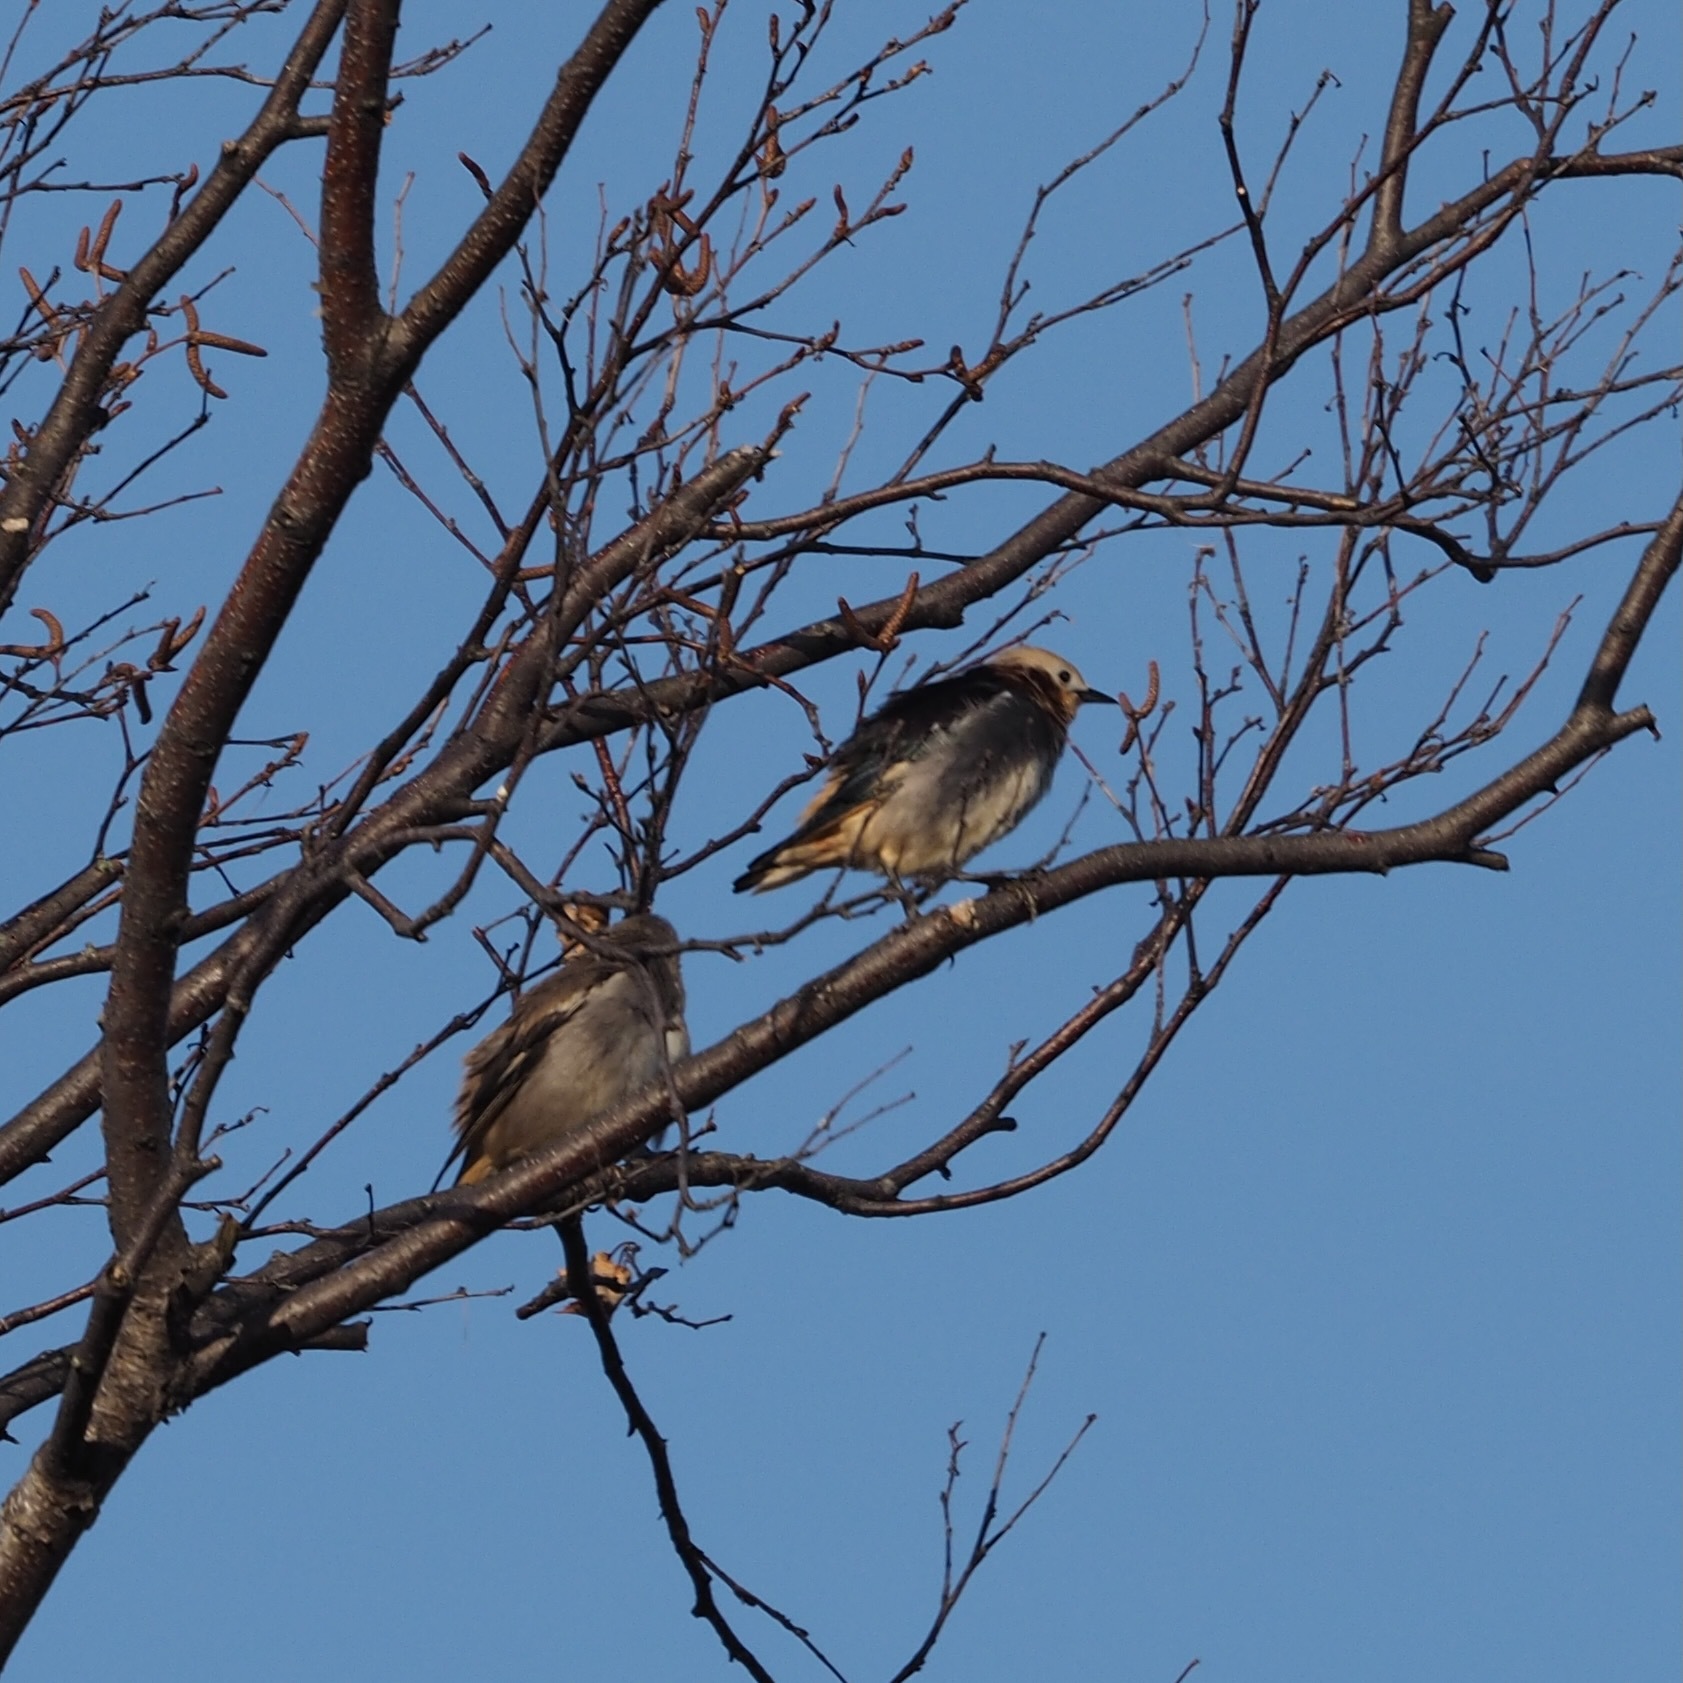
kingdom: Animalia
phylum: Chordata
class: Aves
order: Passeriformes
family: Sturnidae
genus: Agropsar
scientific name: Agropsar philippensis
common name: Chestnut-cheeked starling
